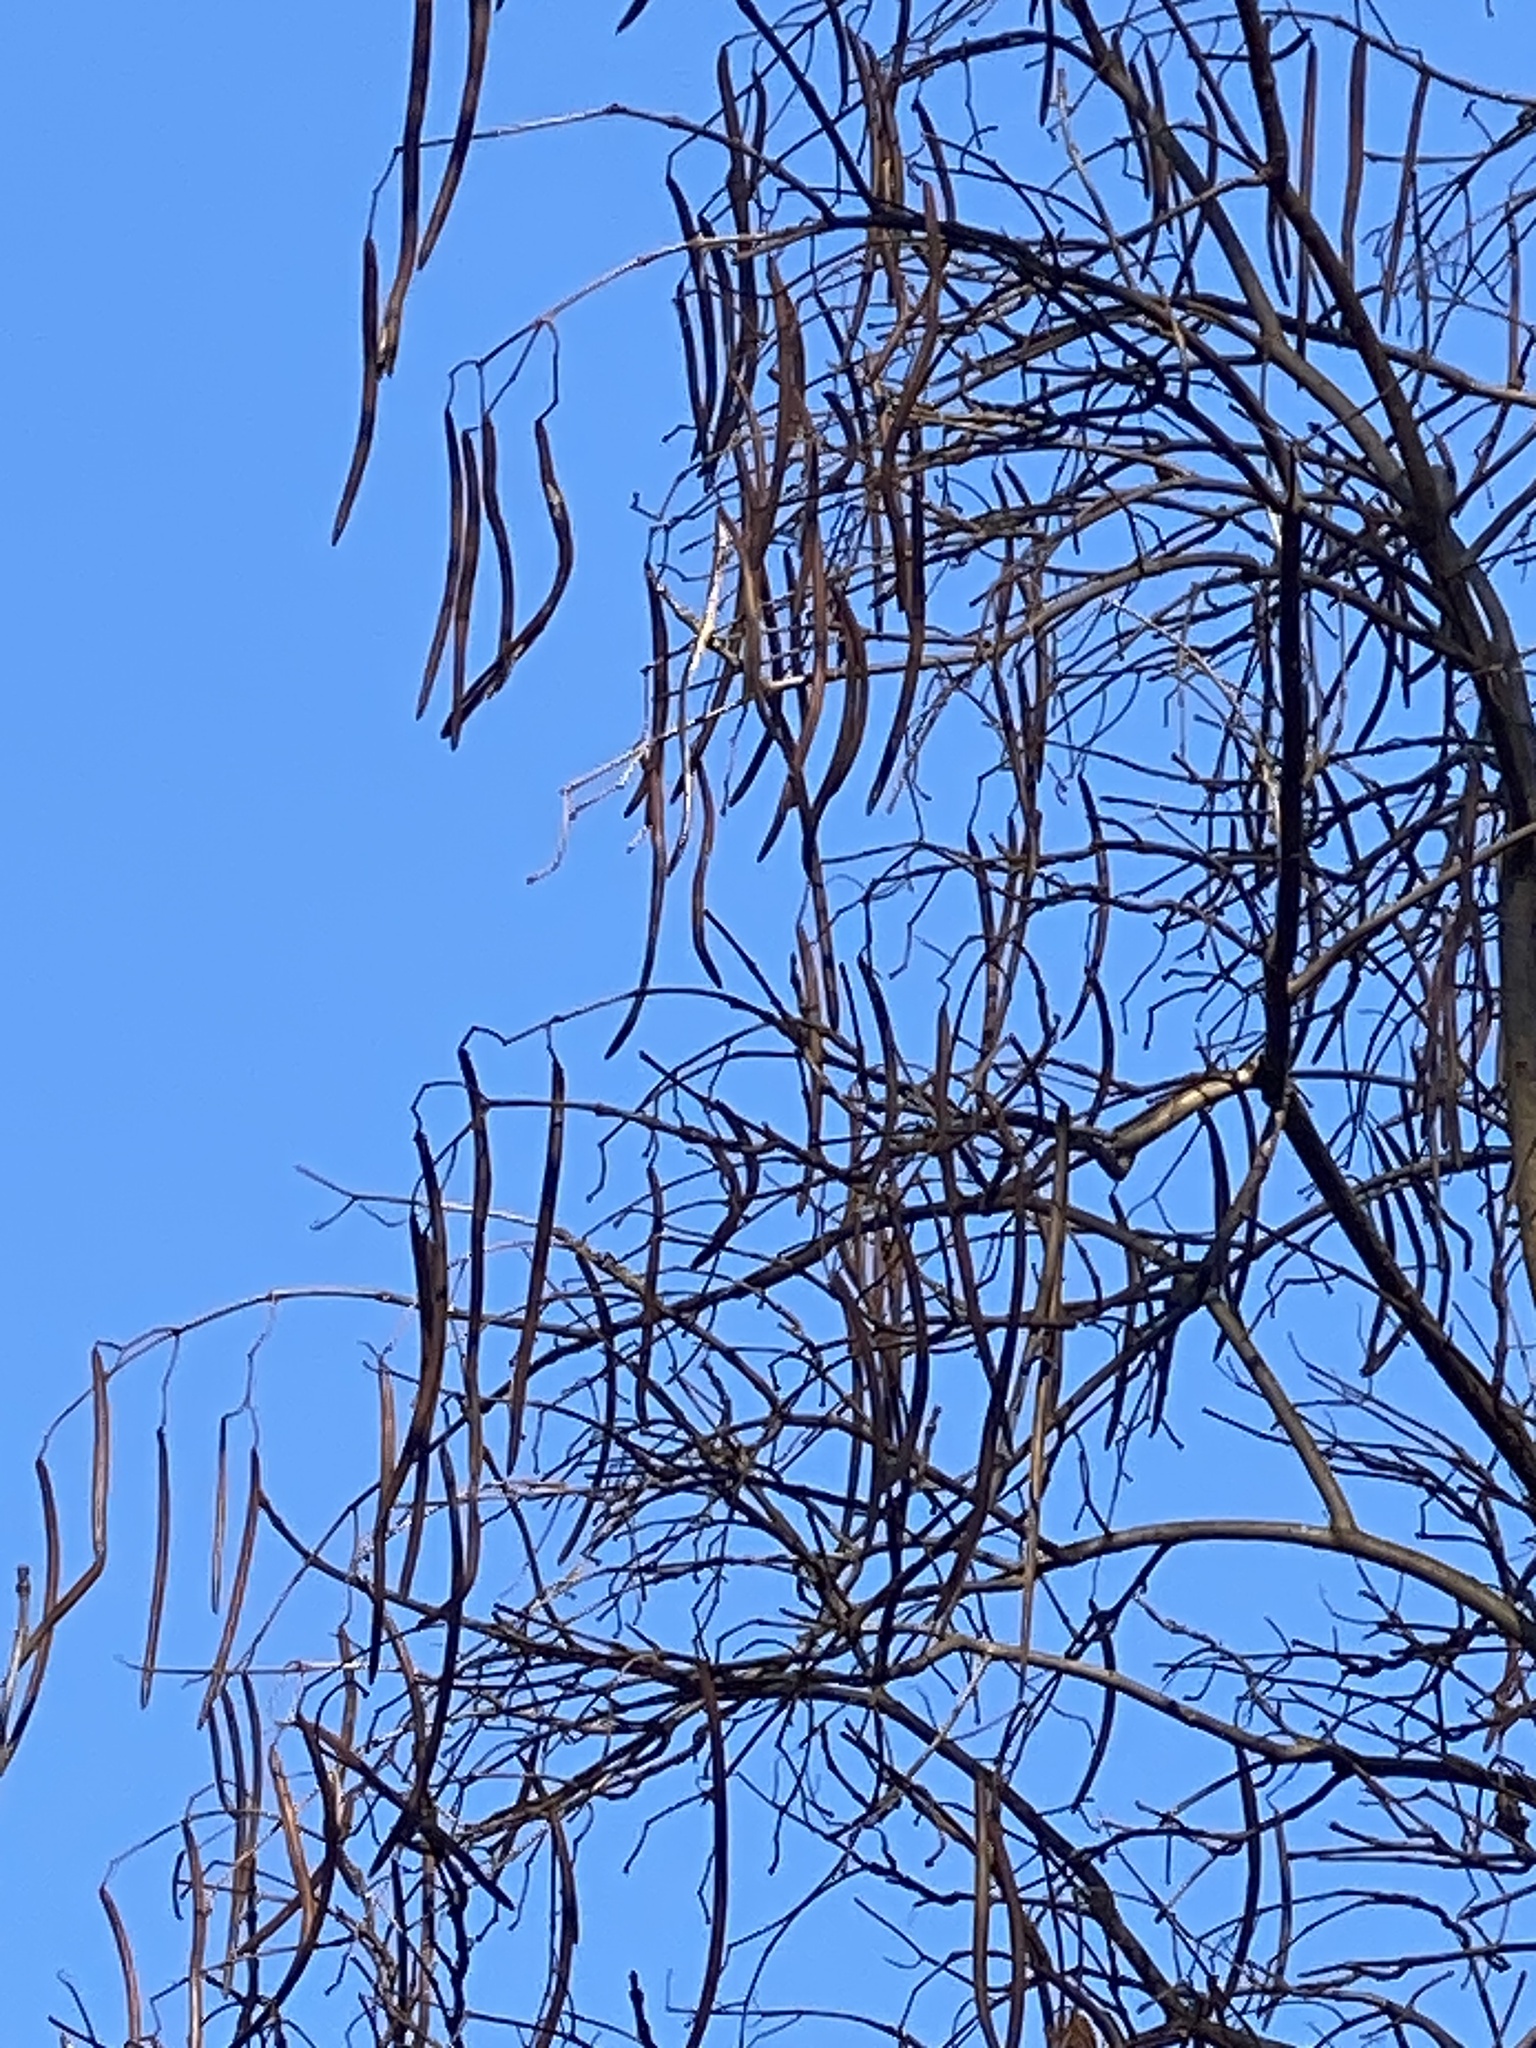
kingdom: Plantae
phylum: Tracheophyta
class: Magnoliopsida
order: Lamiales
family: Bignoniaceae
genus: Catalpa
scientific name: Catalpa
